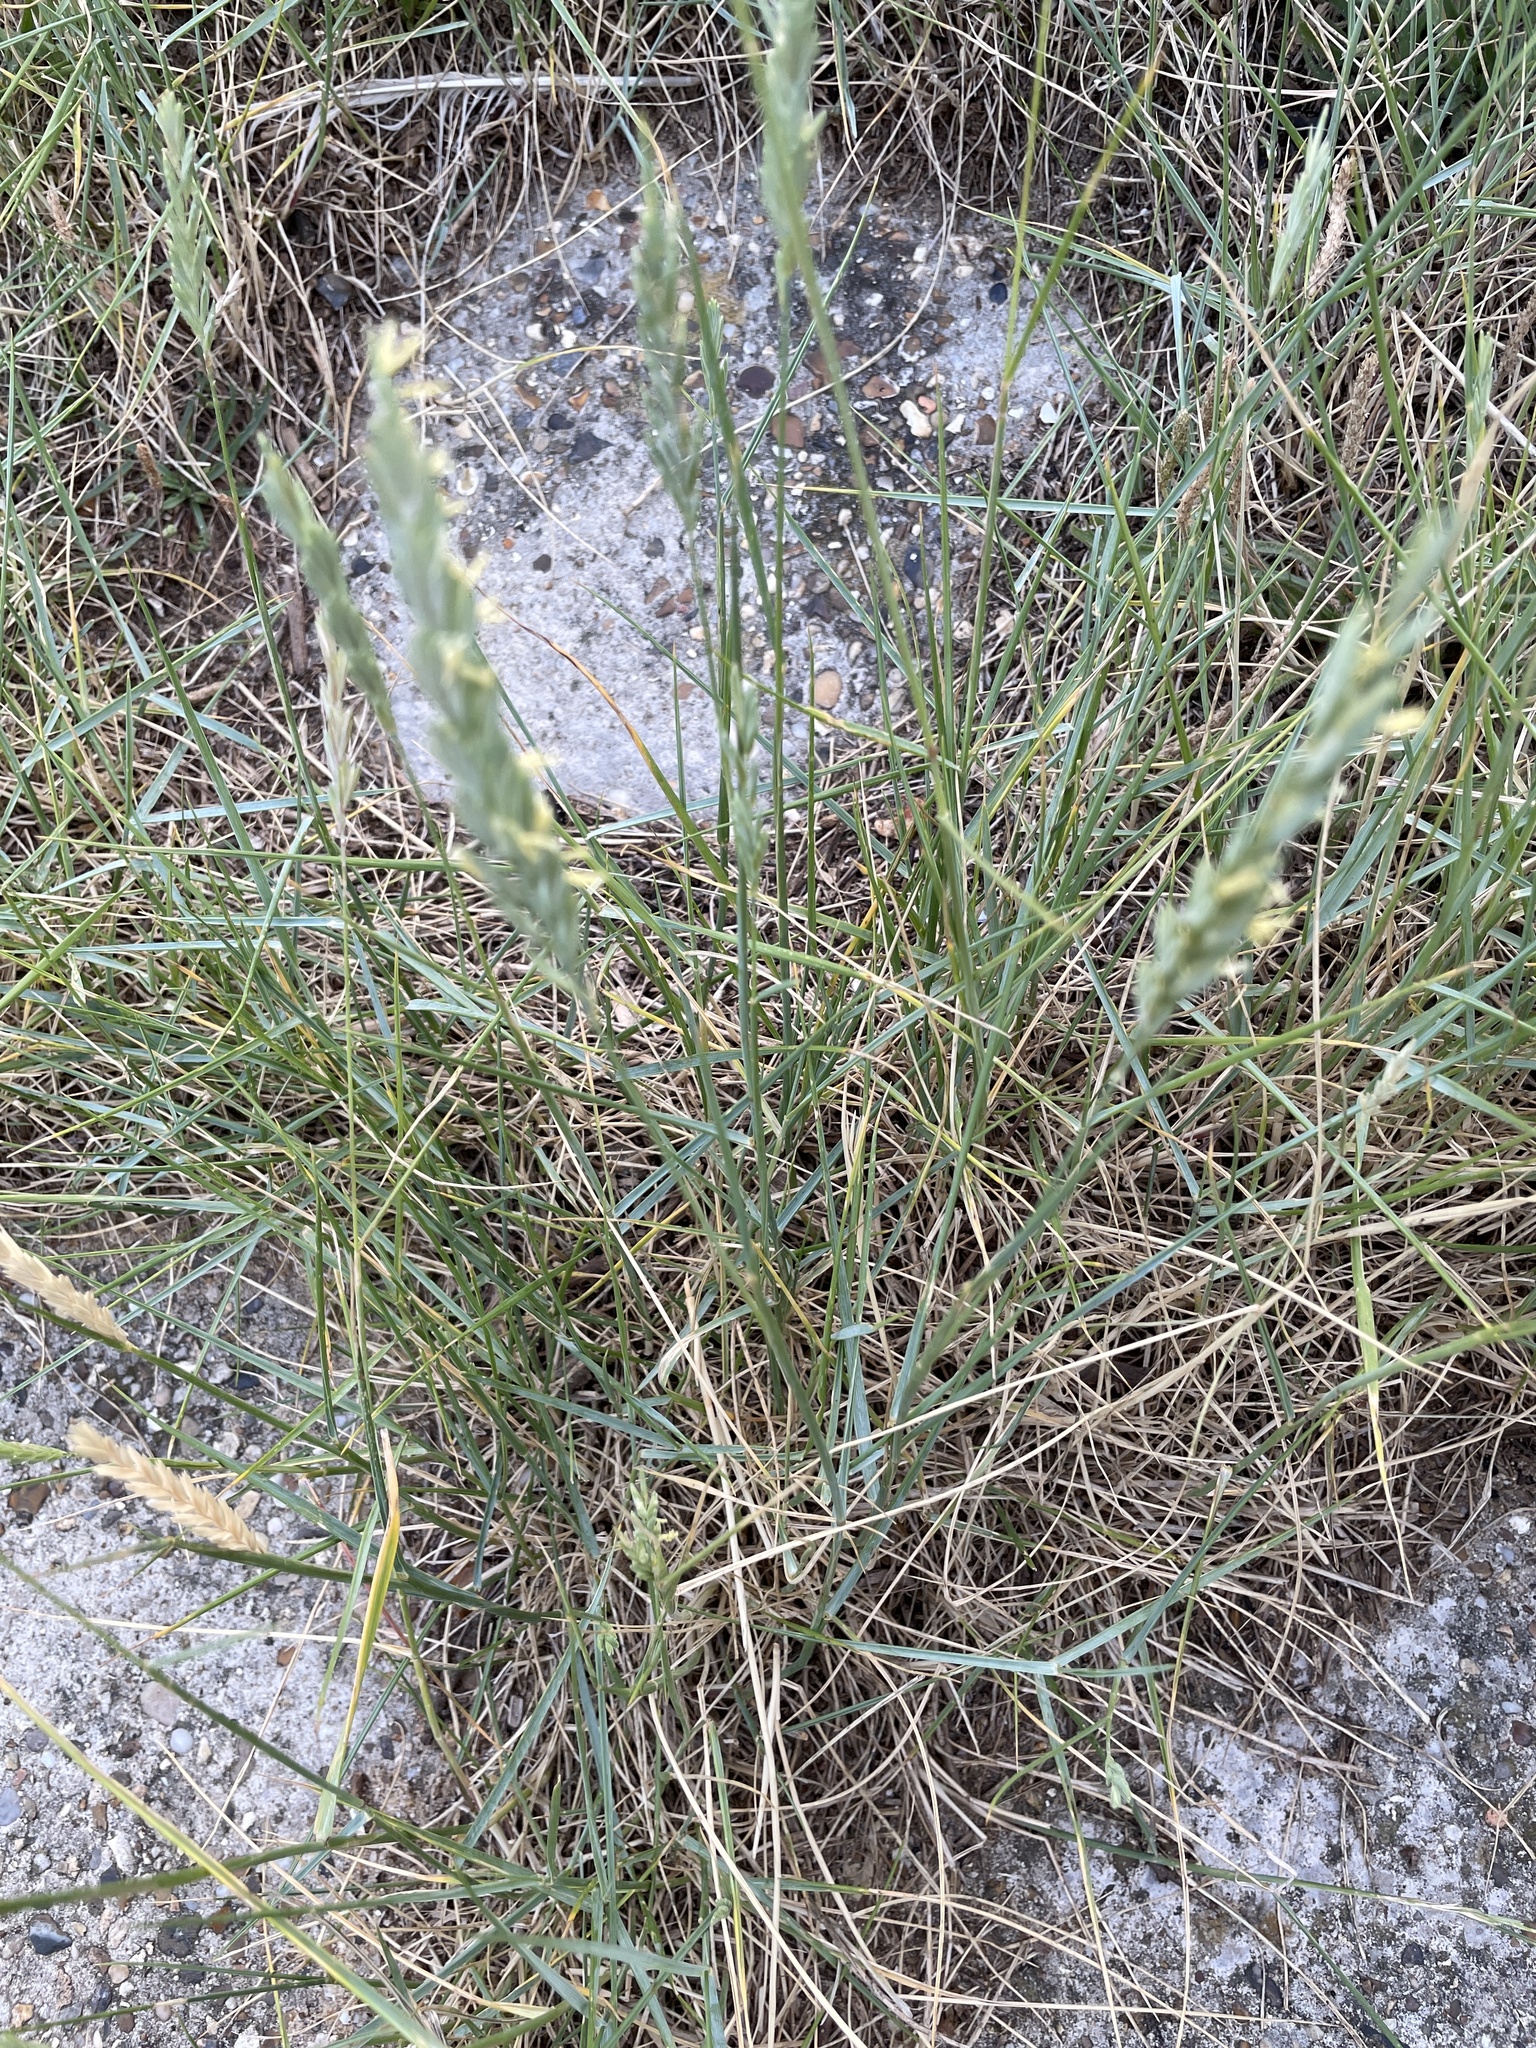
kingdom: Plantae
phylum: Tracheophyta
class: Liliopsida
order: Poales
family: Poaceae
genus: Elymus
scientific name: Elymus athericus
